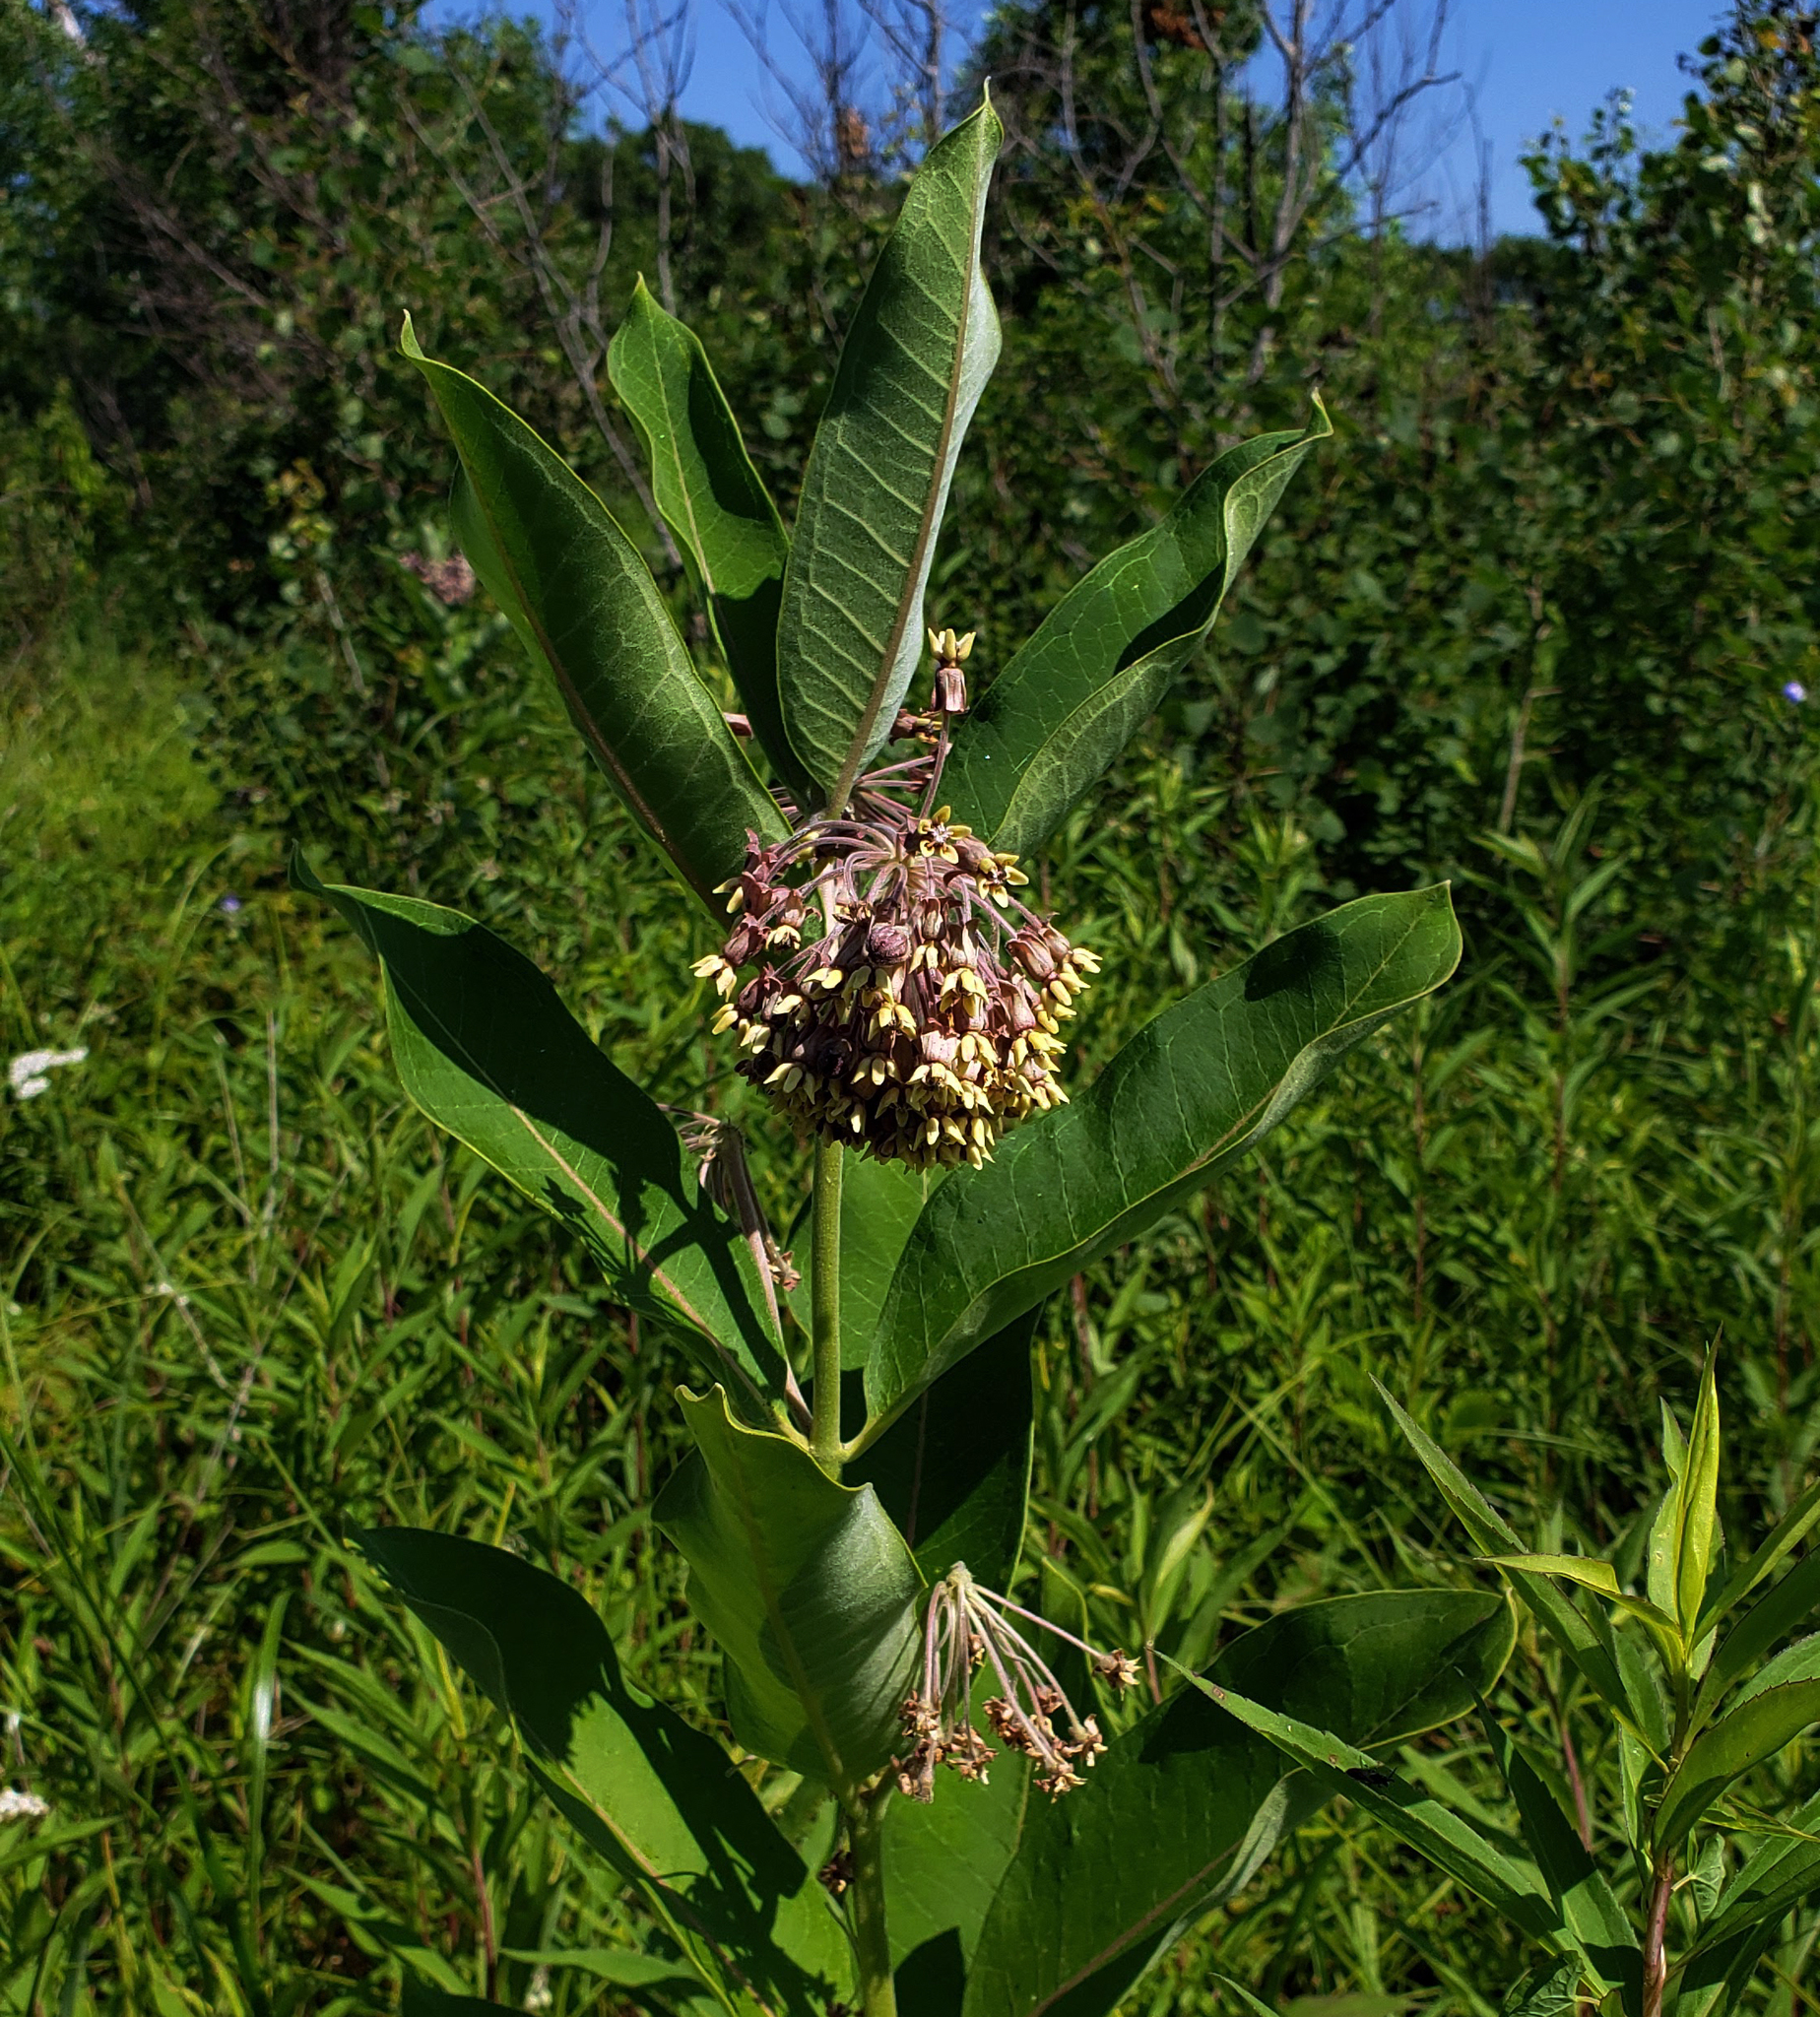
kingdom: Plantae
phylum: Tracheophyta
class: Magnoliopsida
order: Gentianales
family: Apocynaceae
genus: Asclepias
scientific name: Asclepias syriaca
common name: Common milkweed
